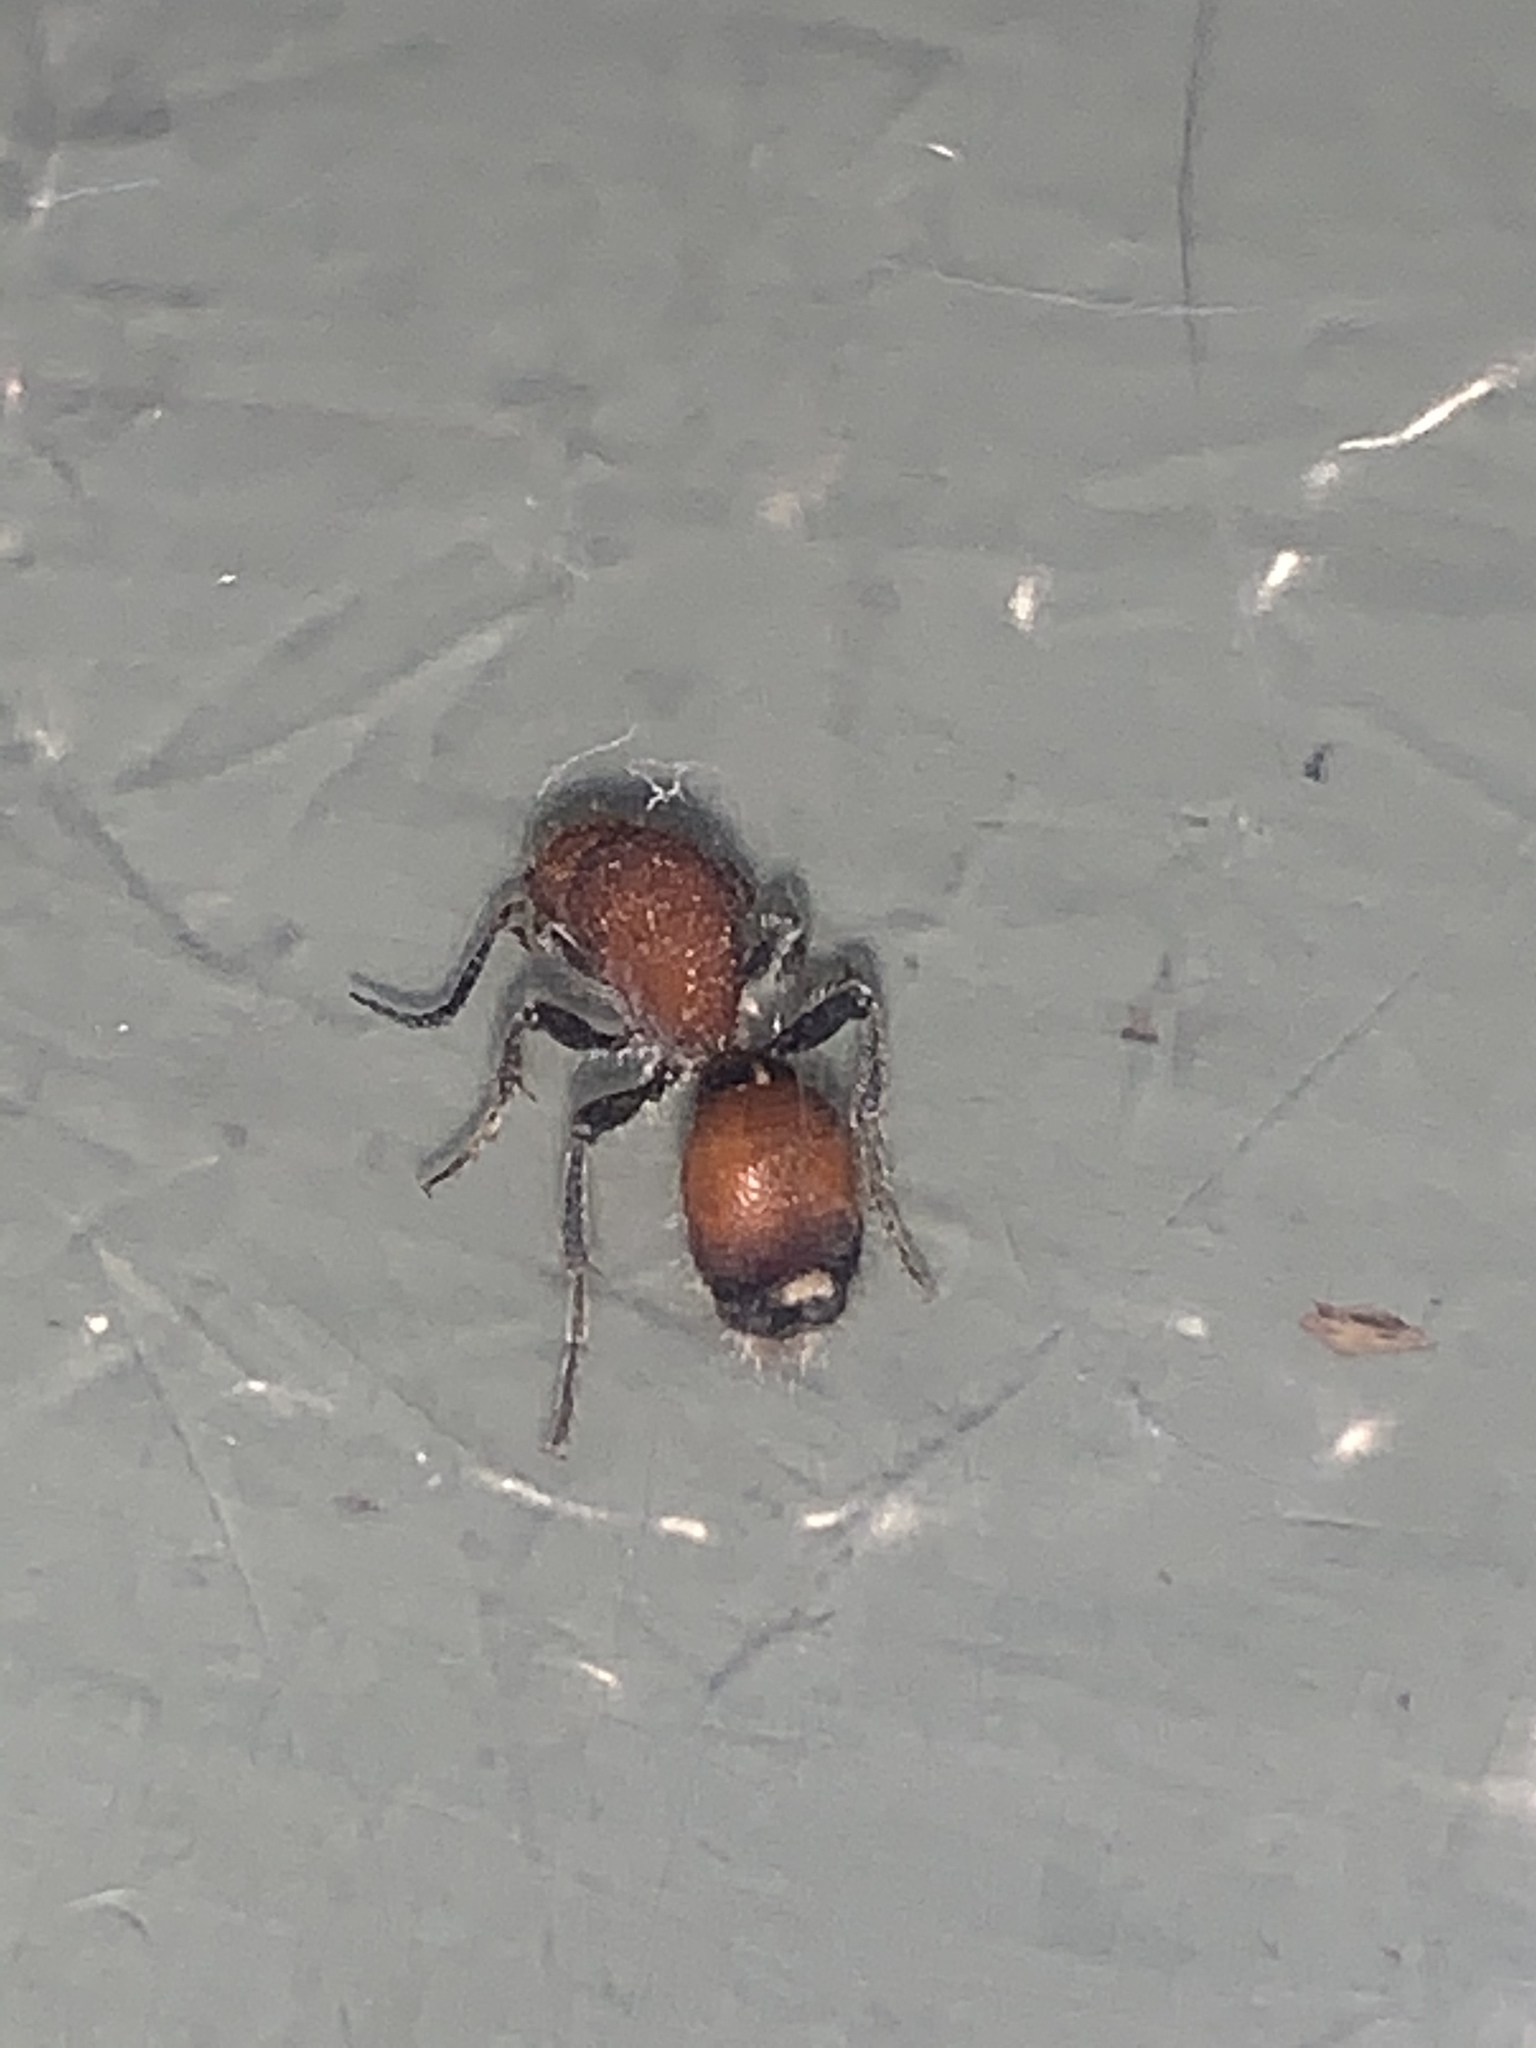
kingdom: Animalia
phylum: Arthropoda
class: Insecta
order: Hymenoptera
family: Mutillidae
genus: Sphaeropthalma
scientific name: Sphaeropthalma
